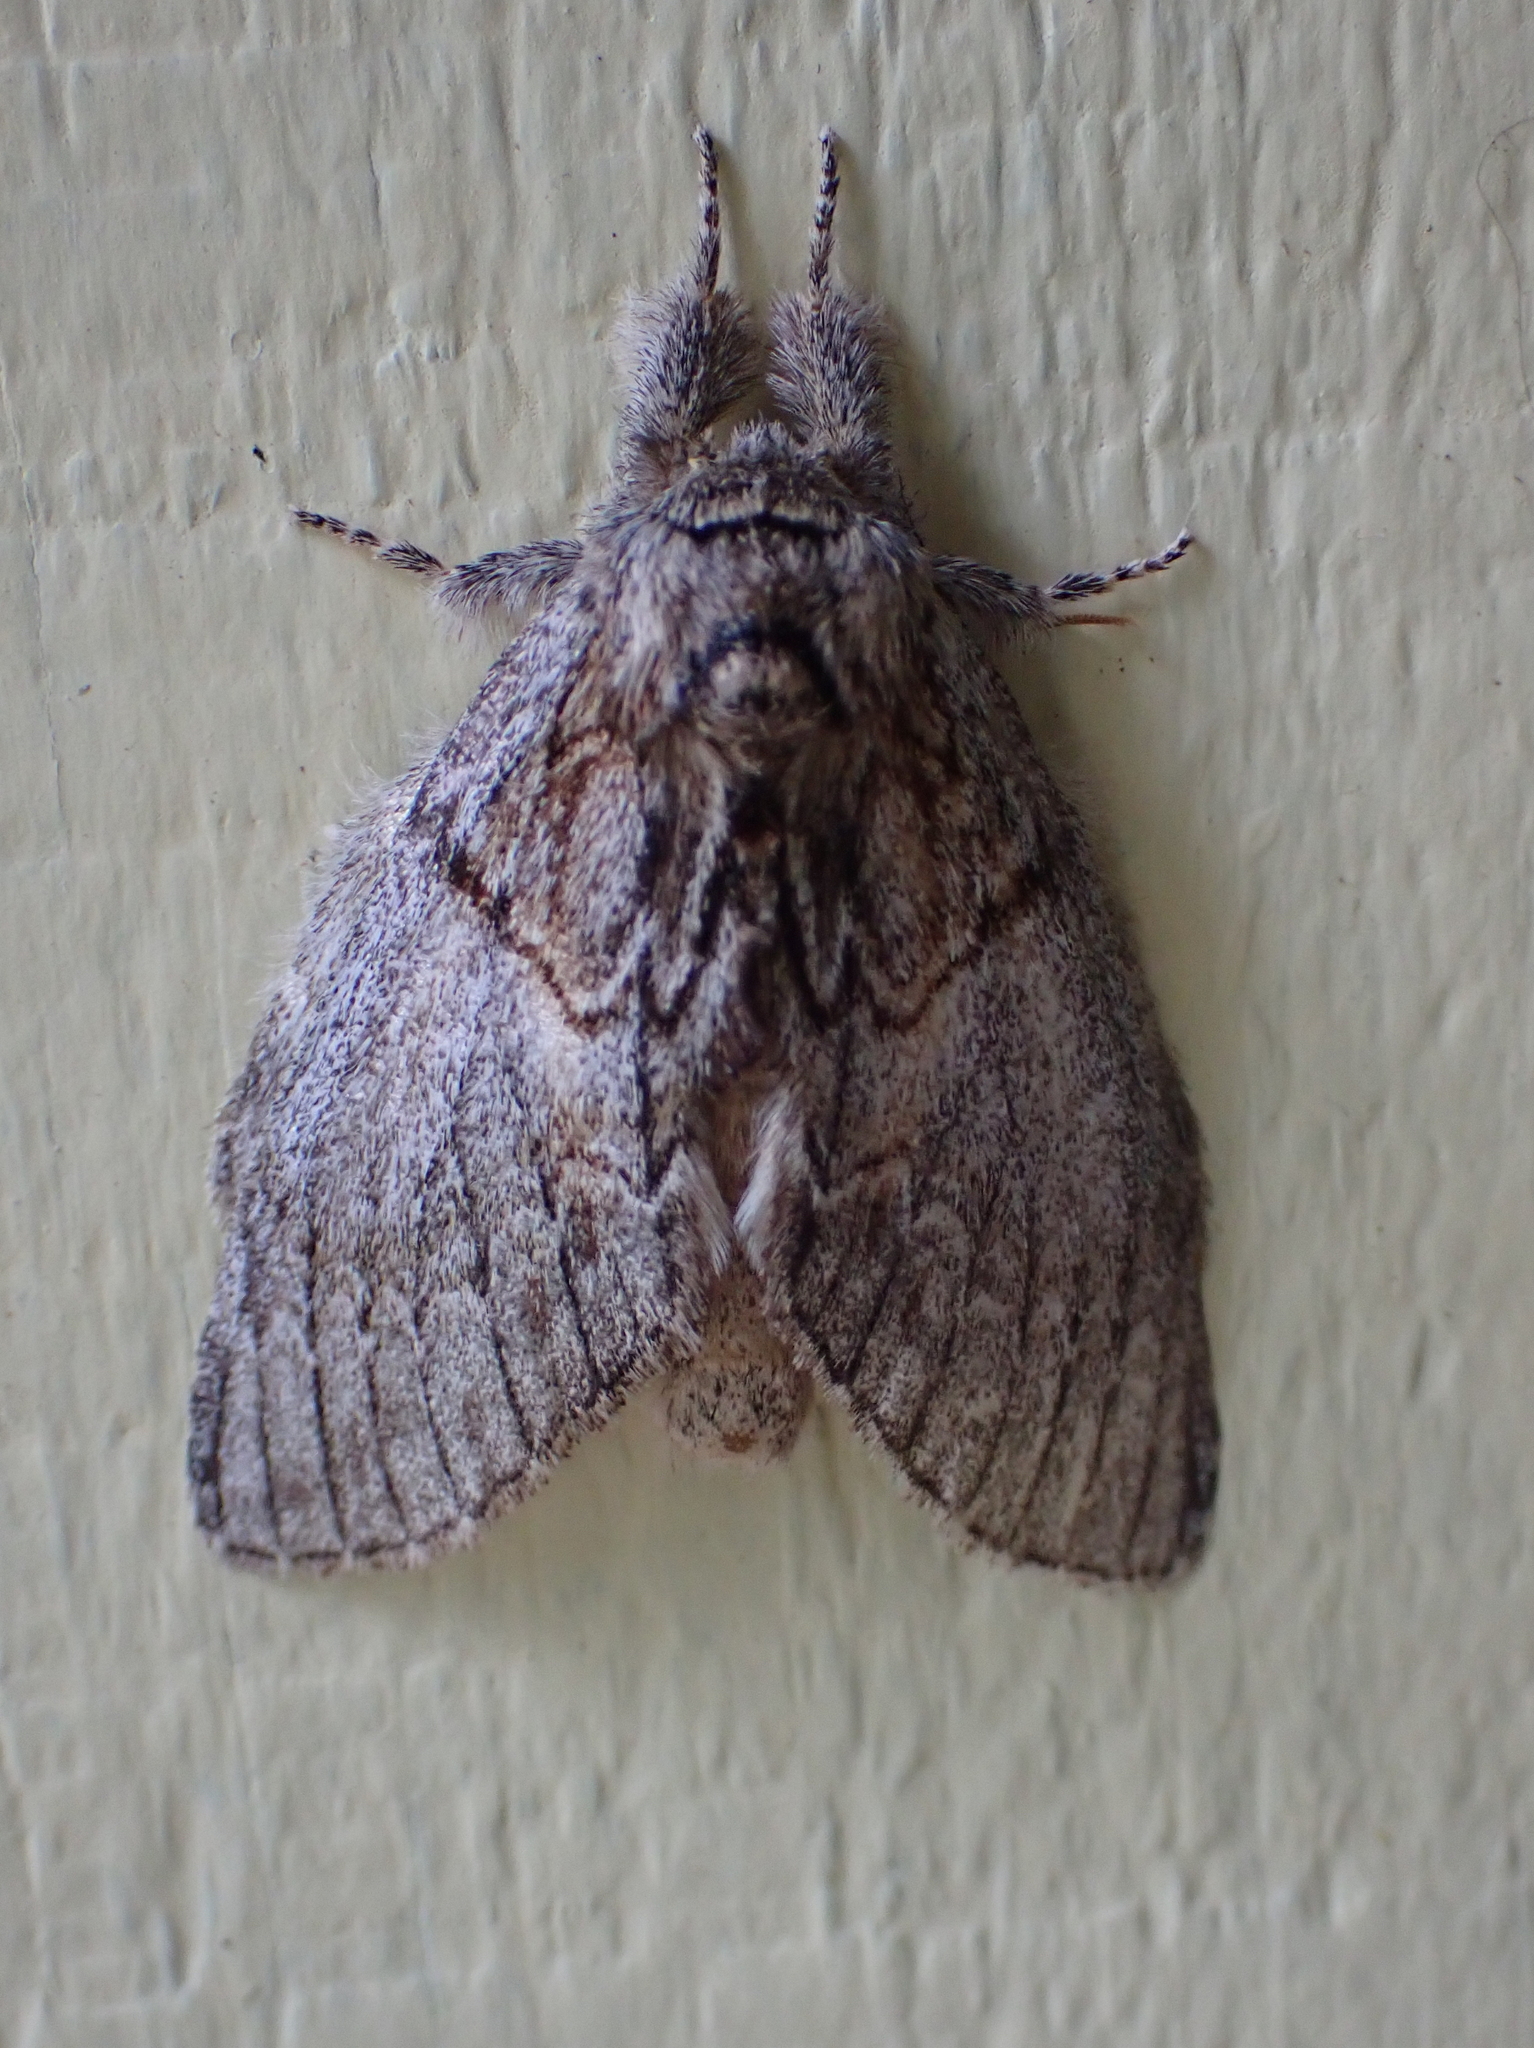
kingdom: Animalia
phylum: Arthropoda
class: Insecta
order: Lepidoptera
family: Notodontidae
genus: Peridea
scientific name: Peridea basitriens
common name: Oval-based prominent
